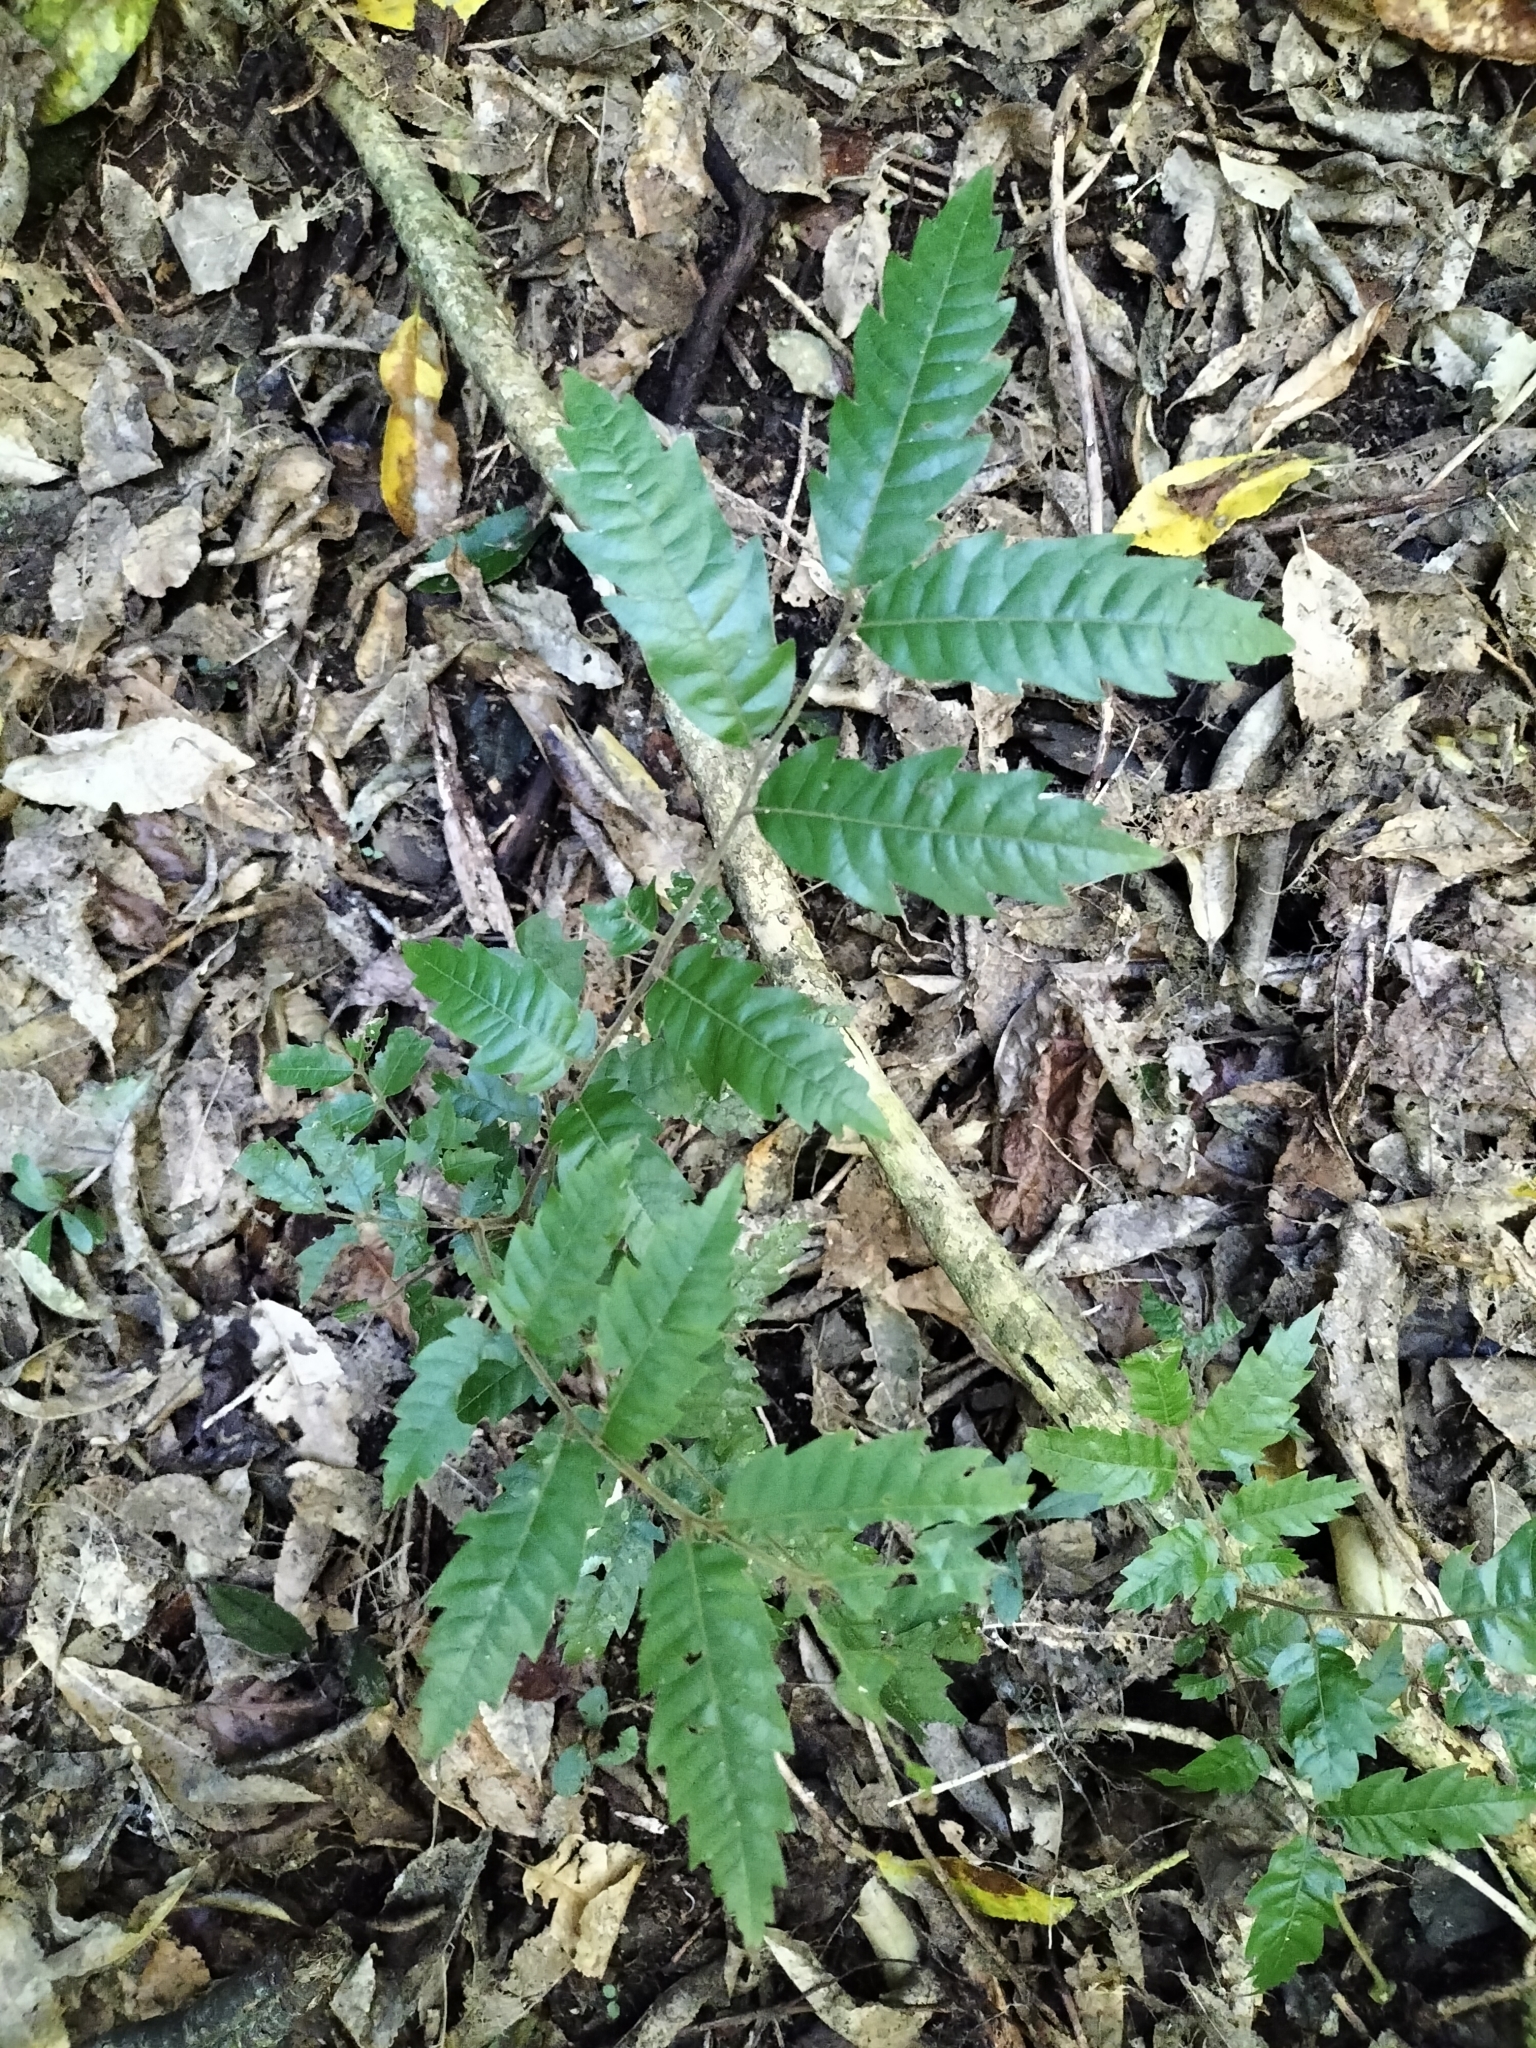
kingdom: Plantae
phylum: Tracheophyta
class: Magnoliopsida
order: Sapindales
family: Sapindaceae
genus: Alectryon
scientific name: Alectryon excelsus
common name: Three kings titoki
